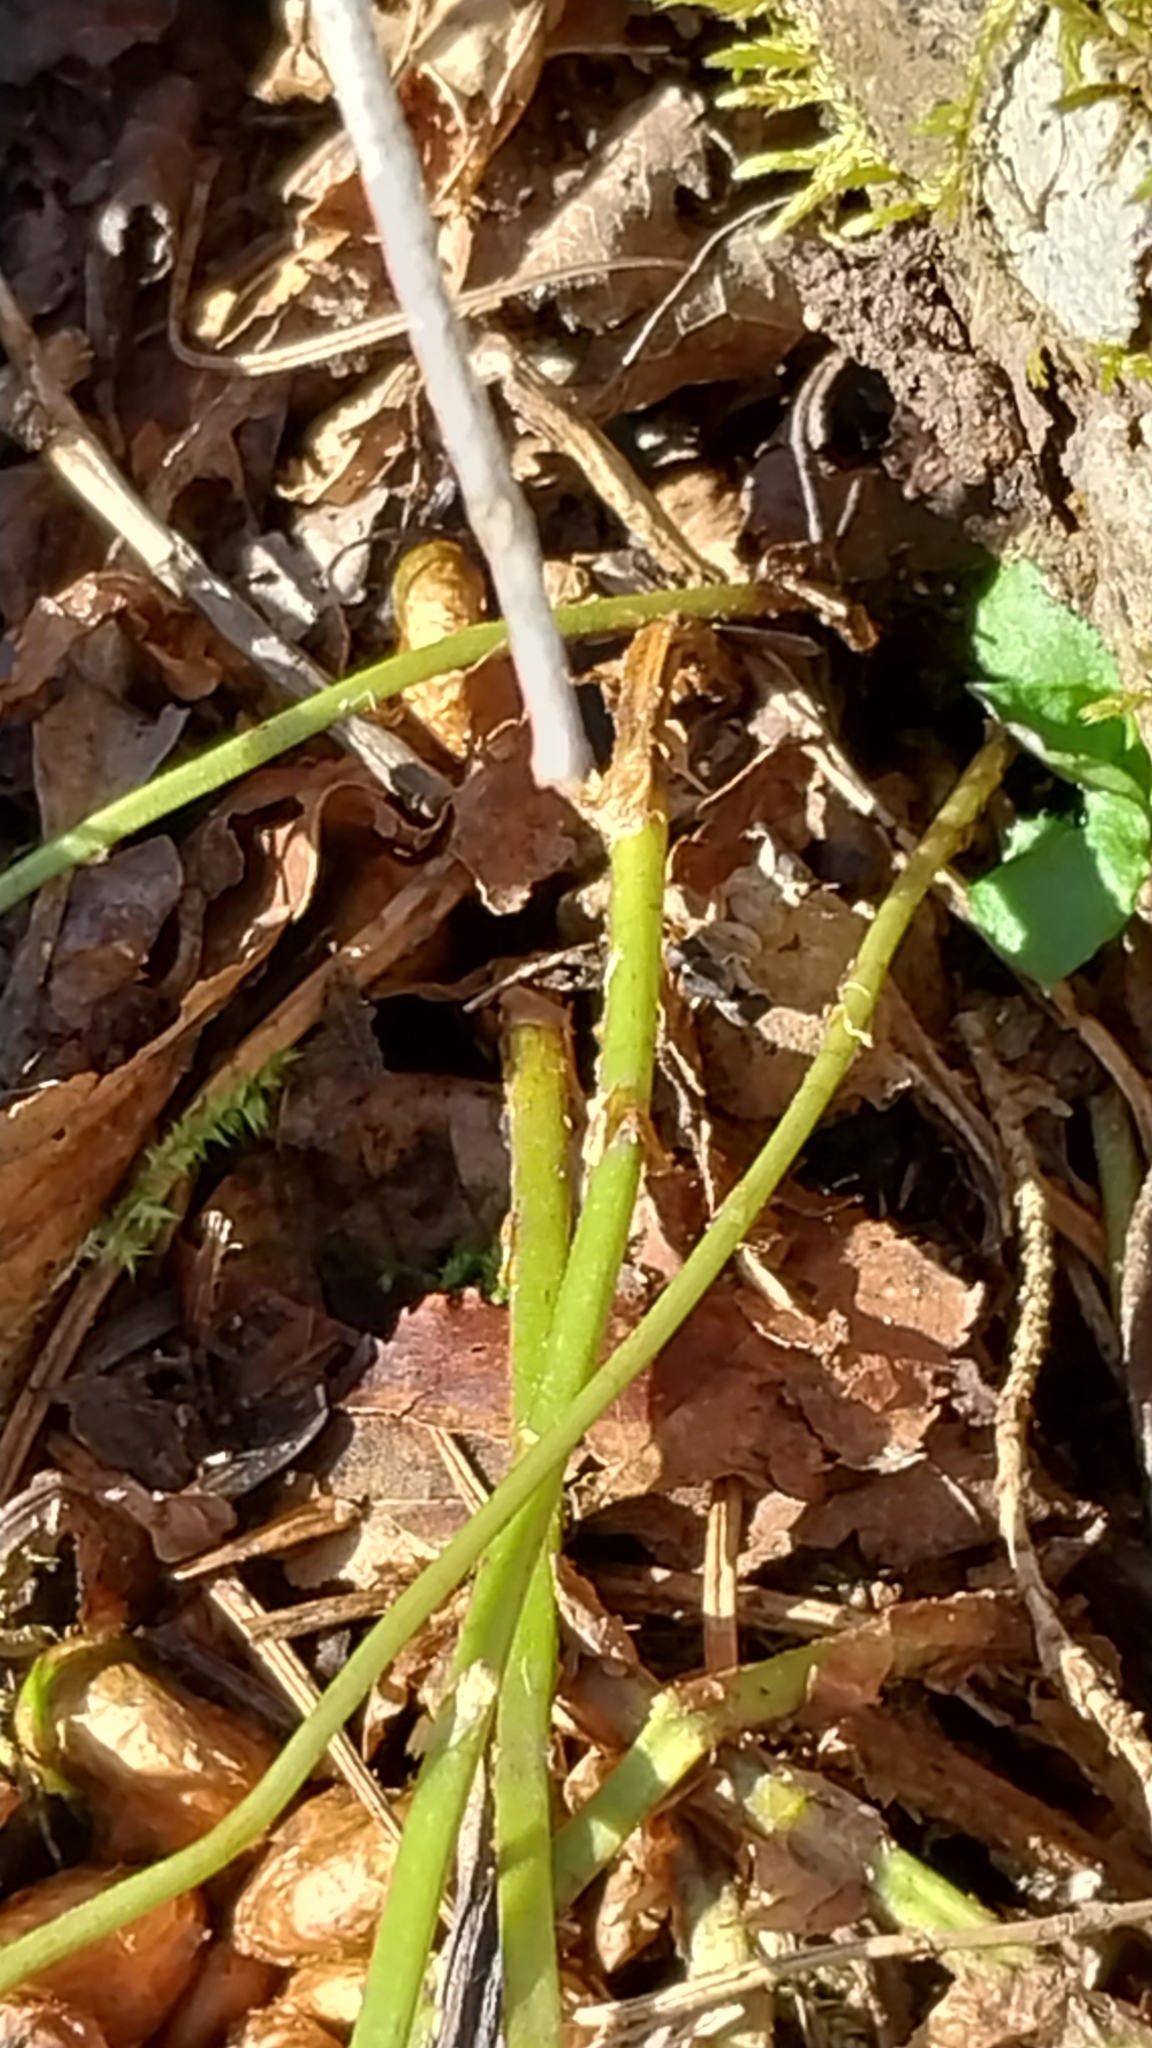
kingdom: Plantae
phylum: Tracheophyta
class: Polypodiopsida
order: Polypodiales
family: Dryopteridaceae
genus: Dryopteris
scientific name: Dryopteris intermedia
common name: Evergreen wood fern
